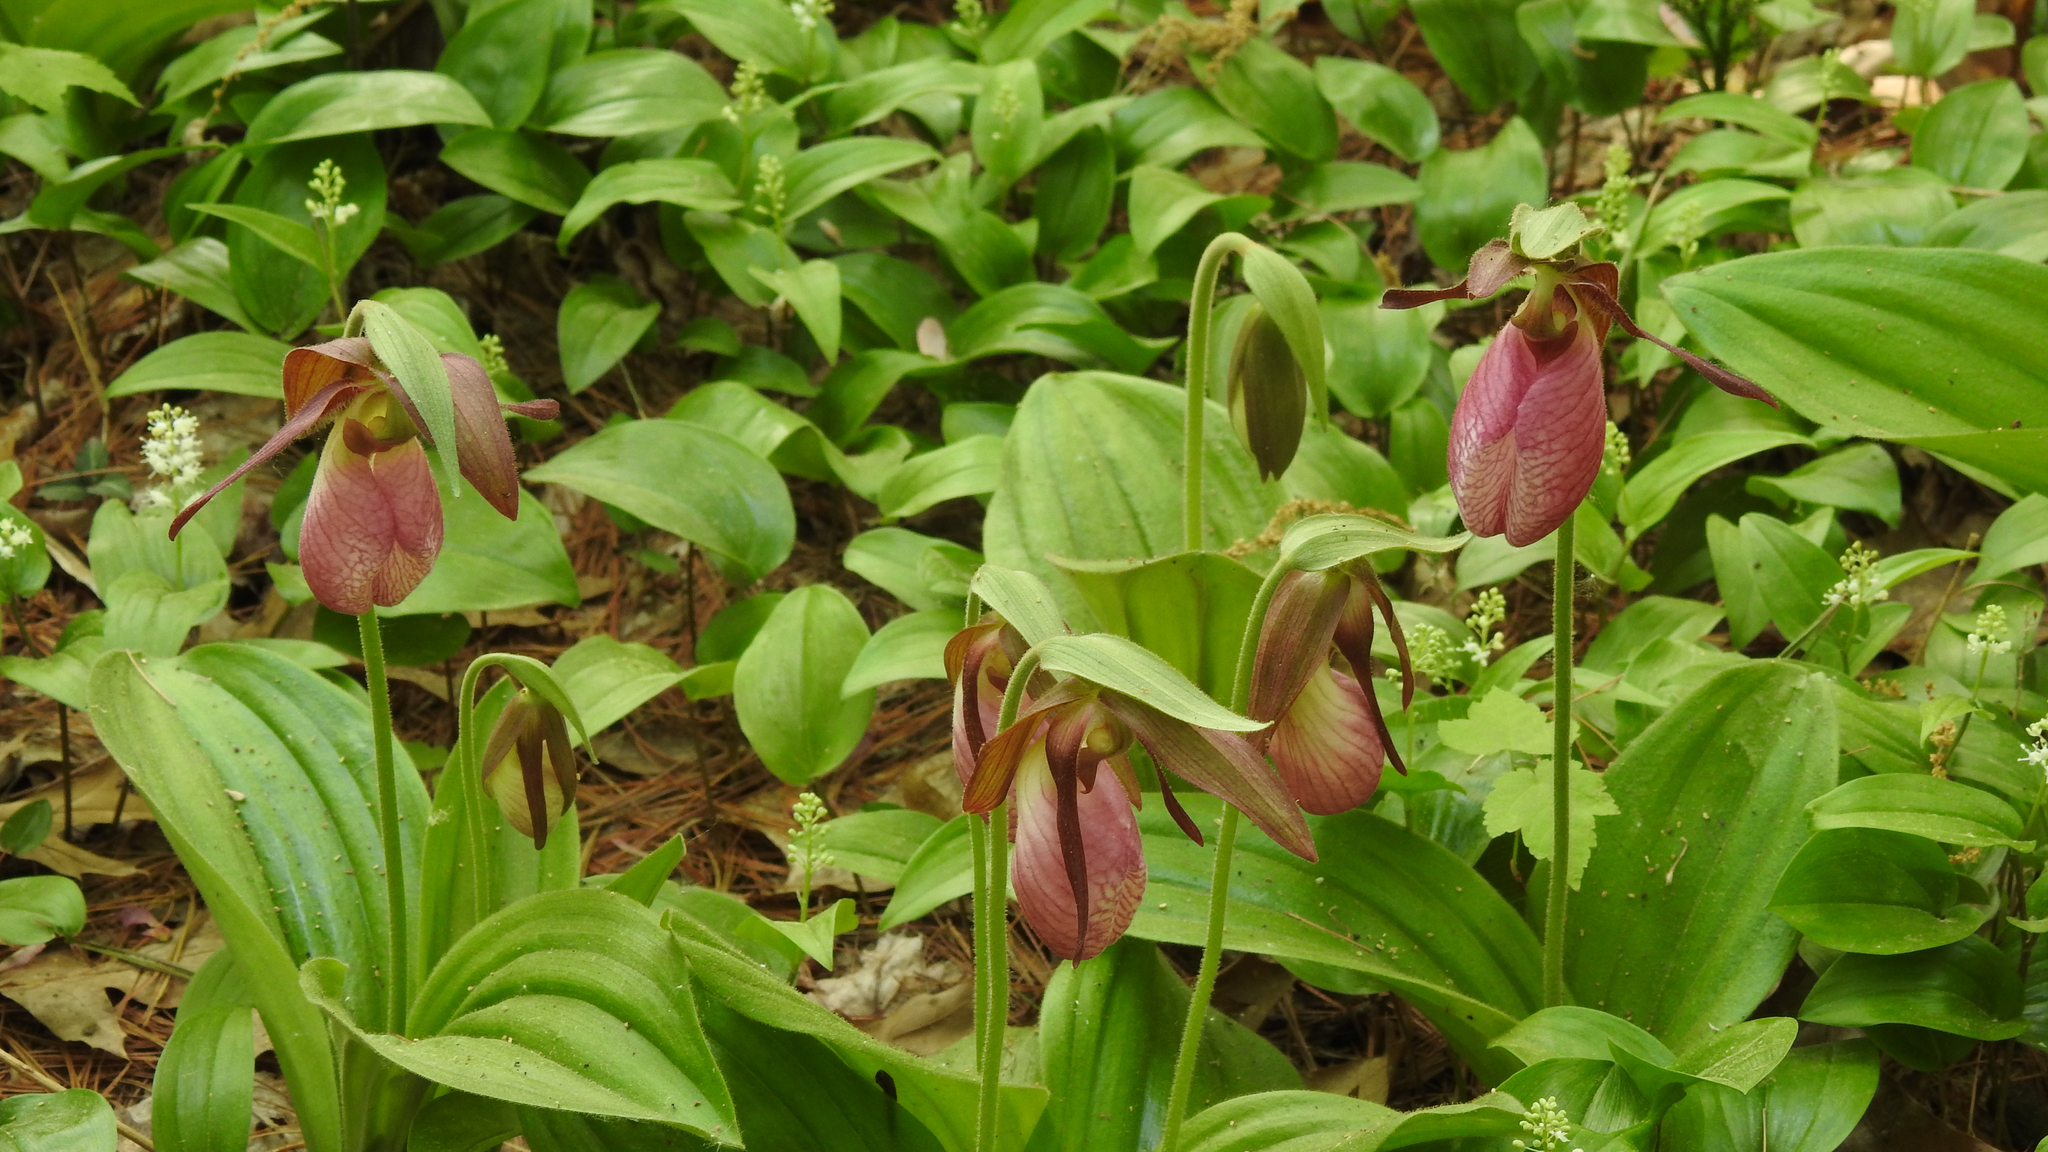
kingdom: Plantae
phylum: Tracheophyta
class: Liliopsida
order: Asparagales
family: Orchidaceae
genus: Cypripedium
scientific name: Cypripedium acaule
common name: Pink lady's-slipper
